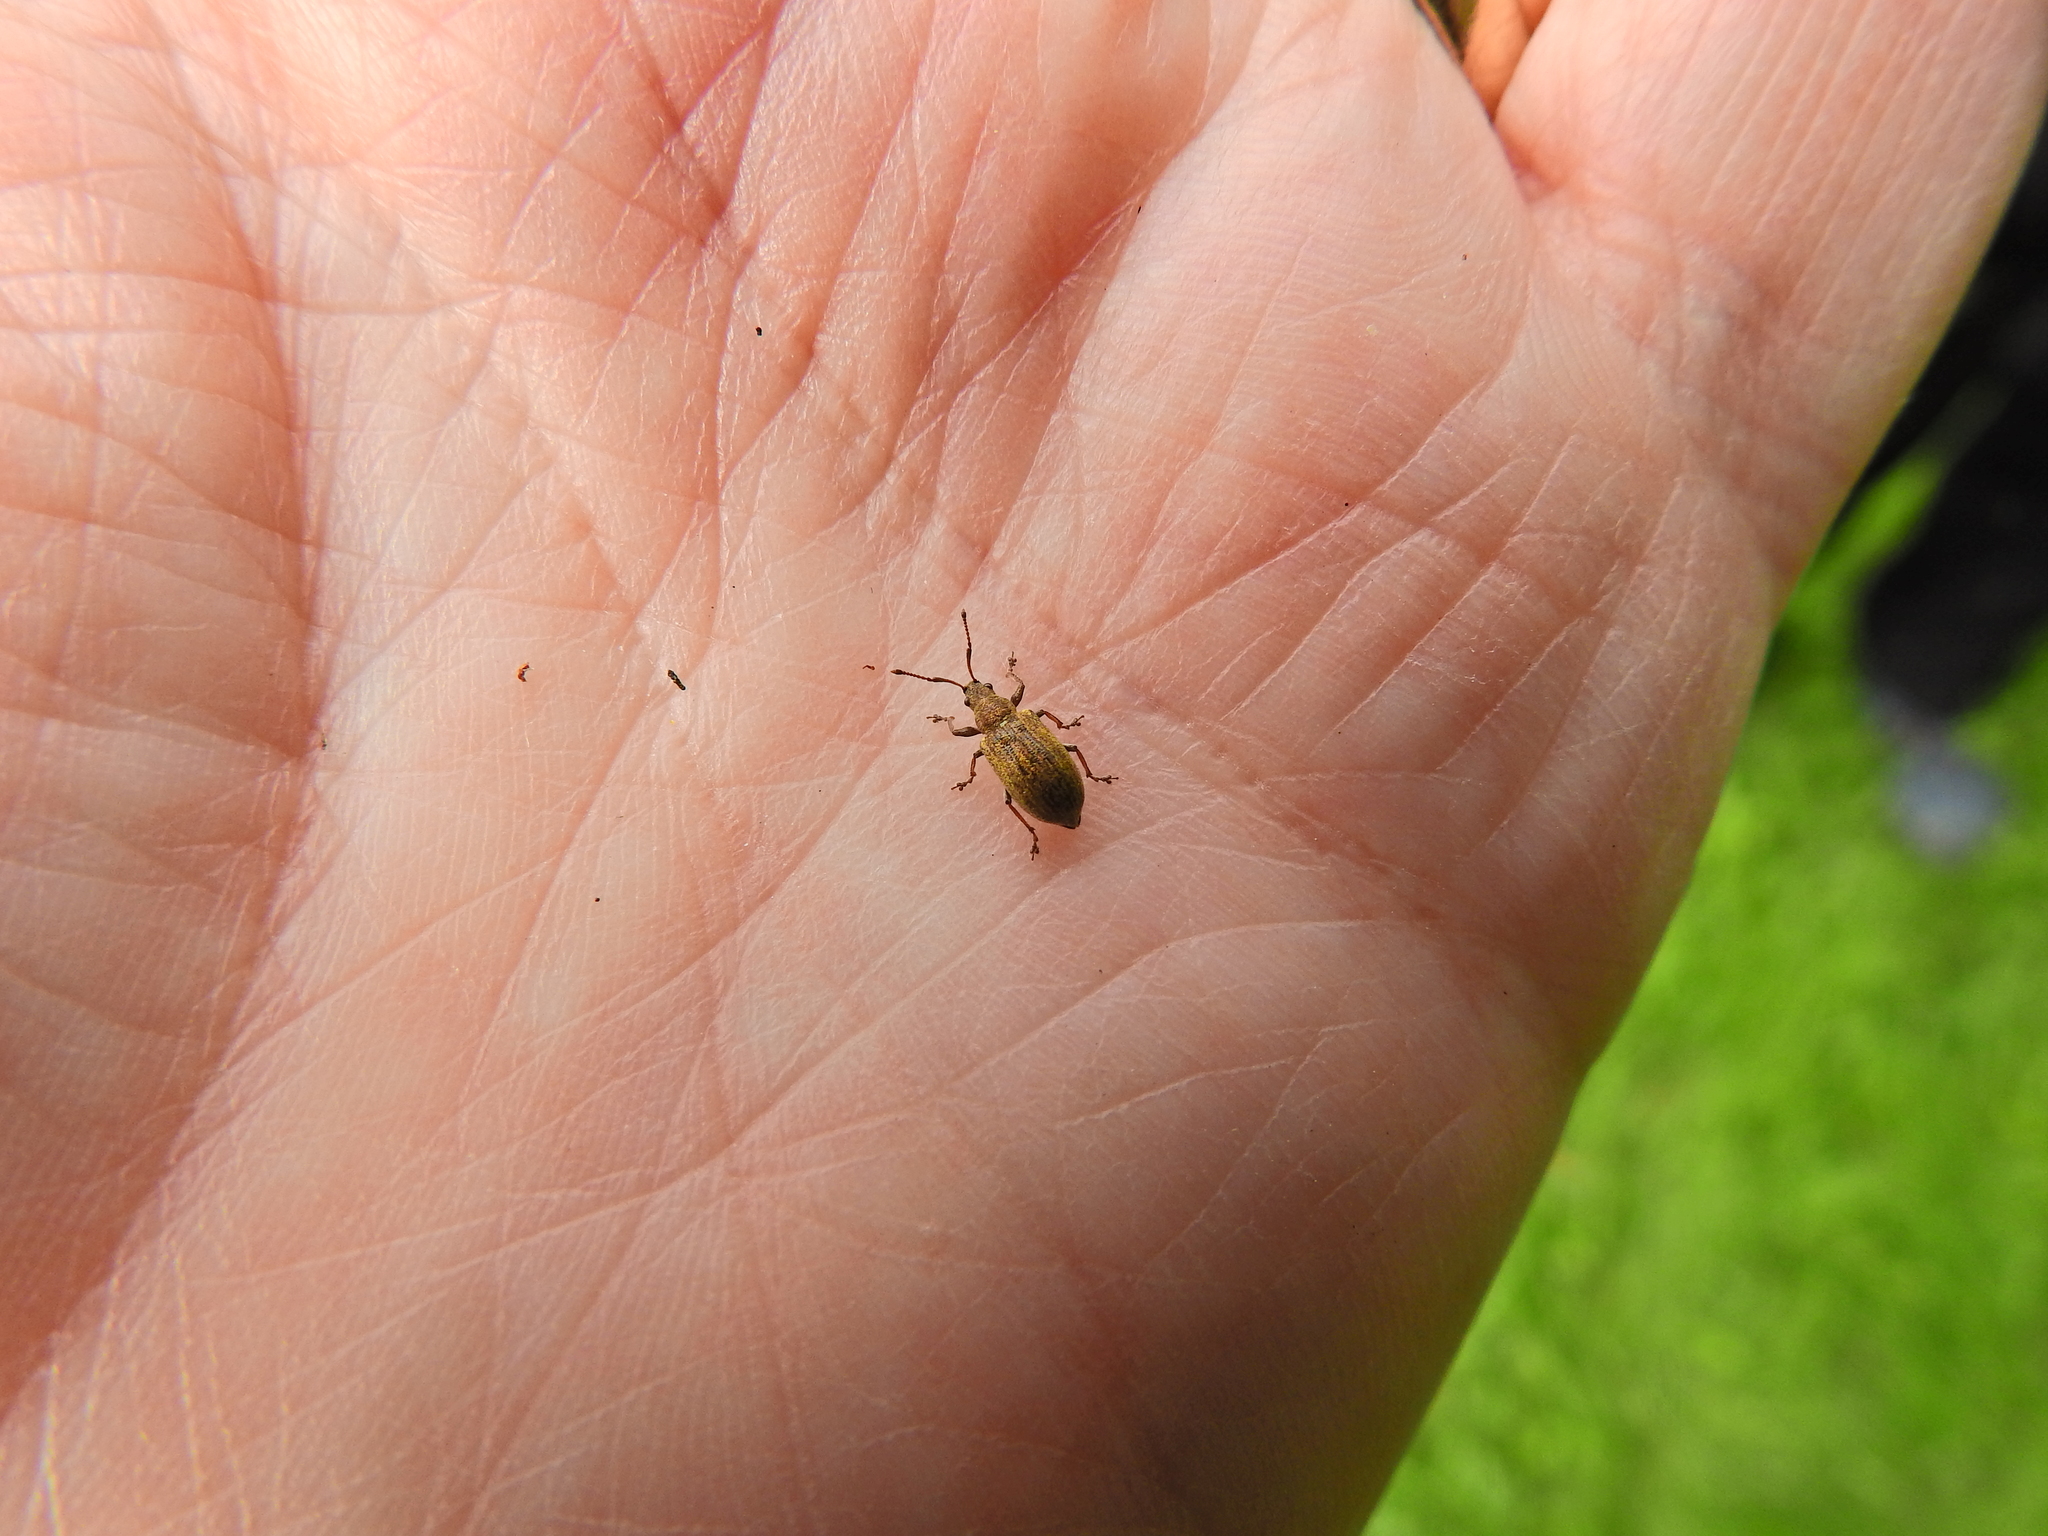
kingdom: Animalia
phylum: Arthropoda
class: Insecta
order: Coleoptera
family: Curculionidae
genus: Phyllobius
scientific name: Phyllobius pyri
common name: Common leaf weevil
